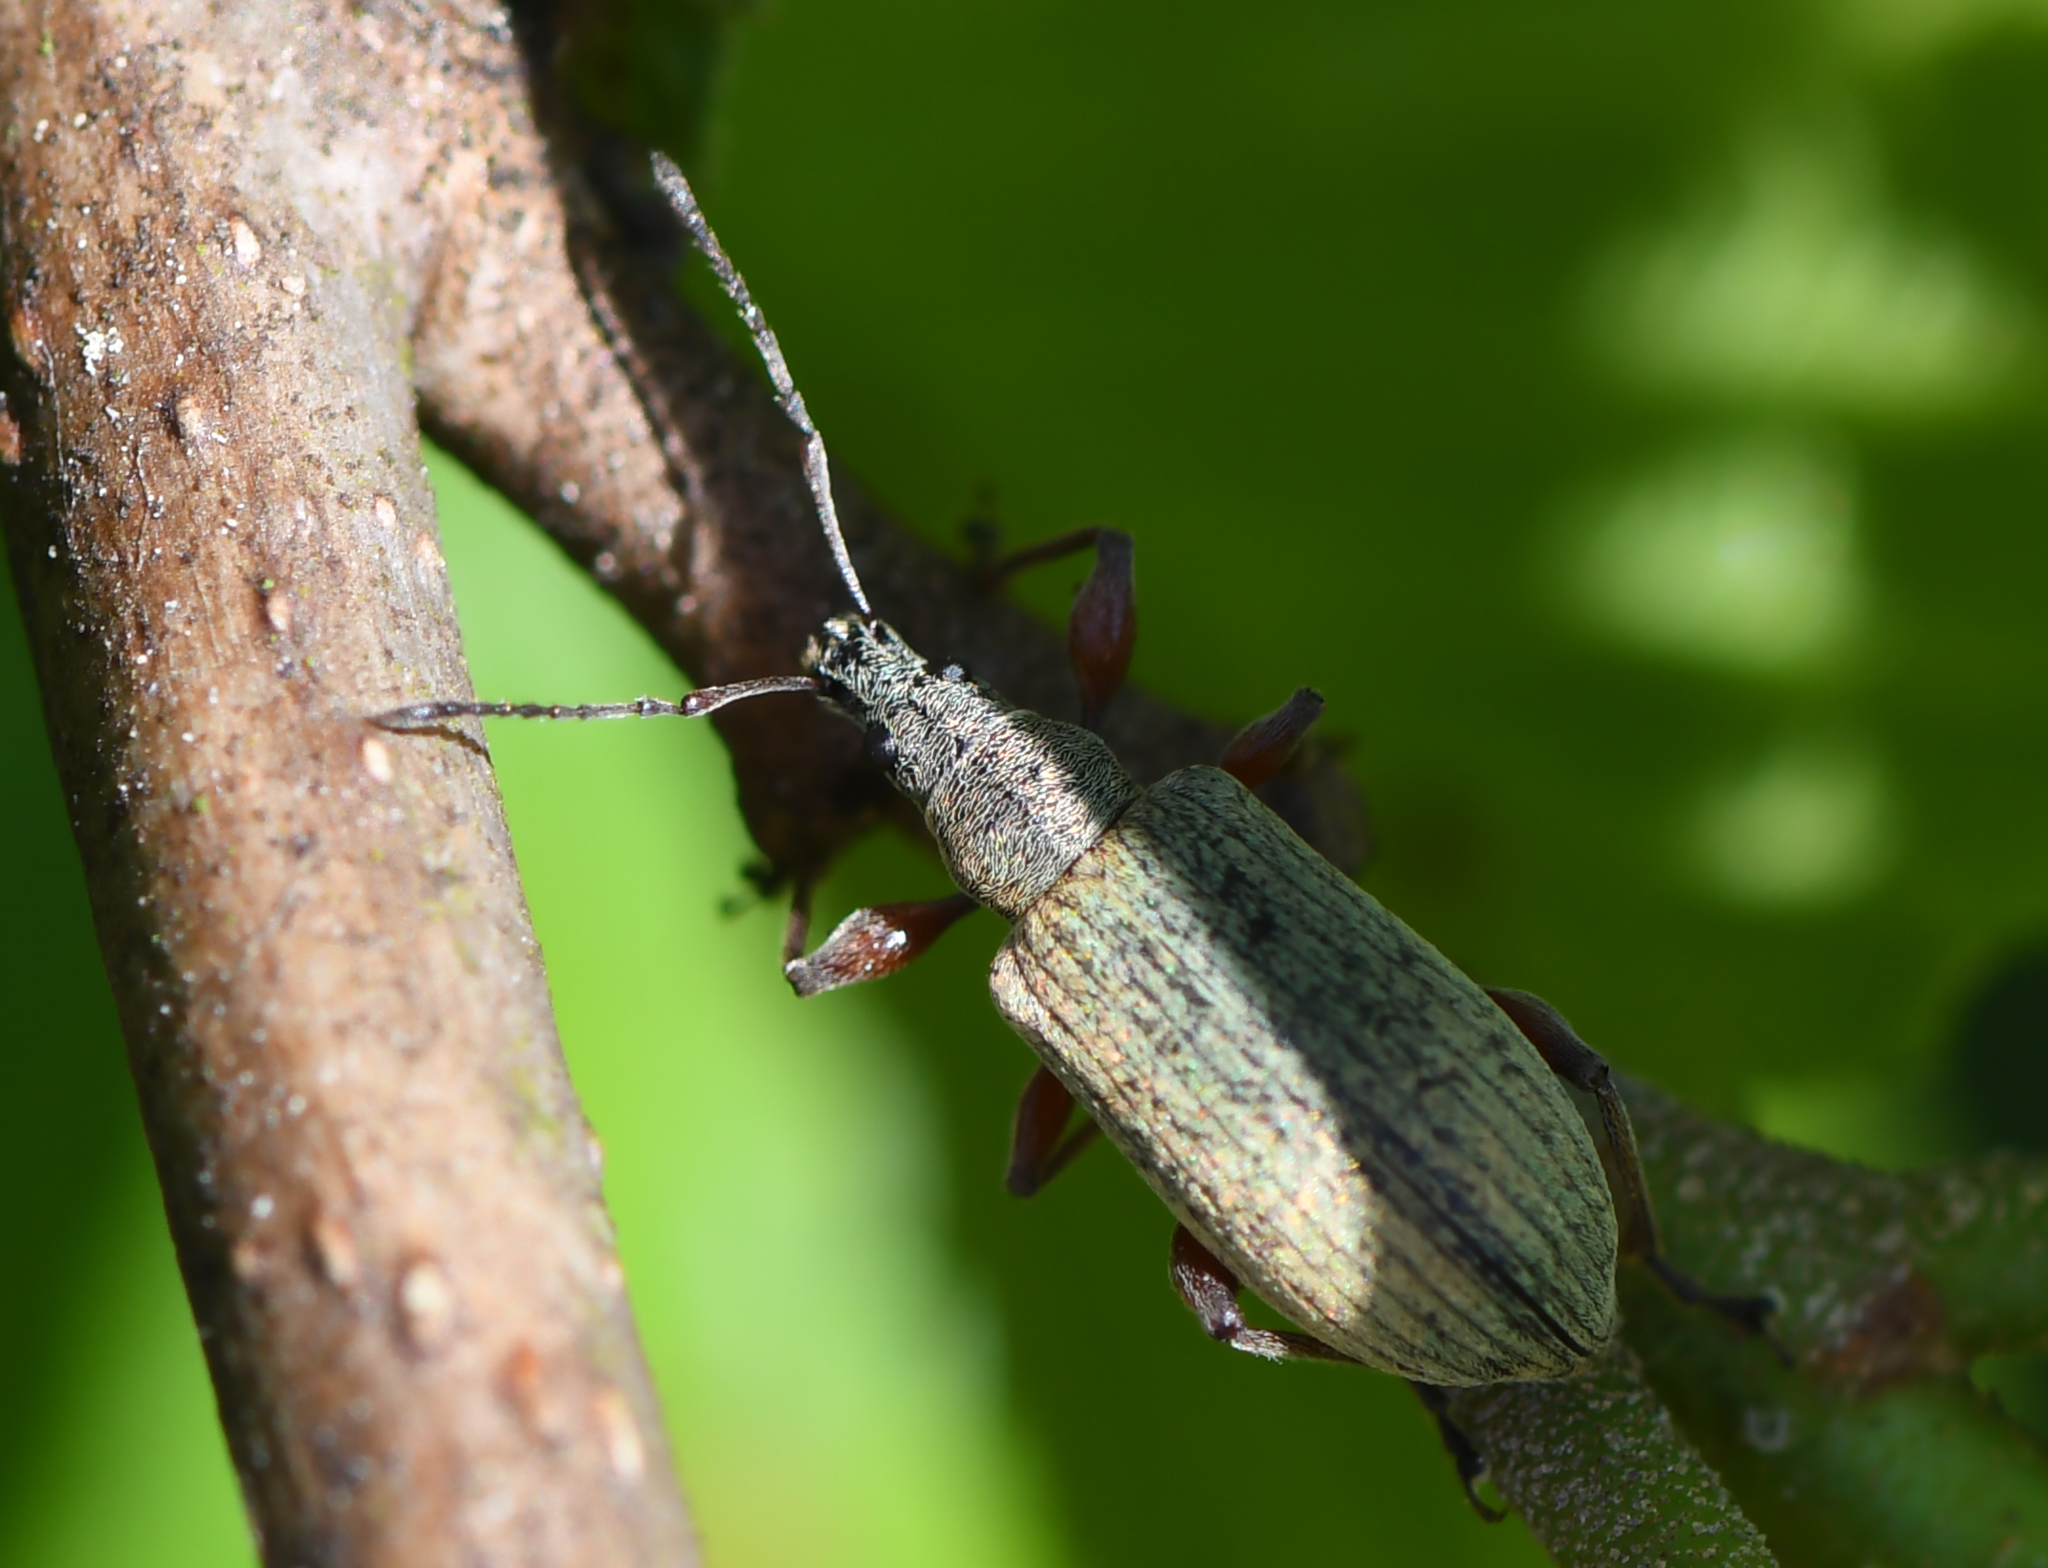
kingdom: Animalia
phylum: Arthropoda
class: Insecta
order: Coleoptera
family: Curculionidae
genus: Phyllobius
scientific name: Phyllobius glaucus
